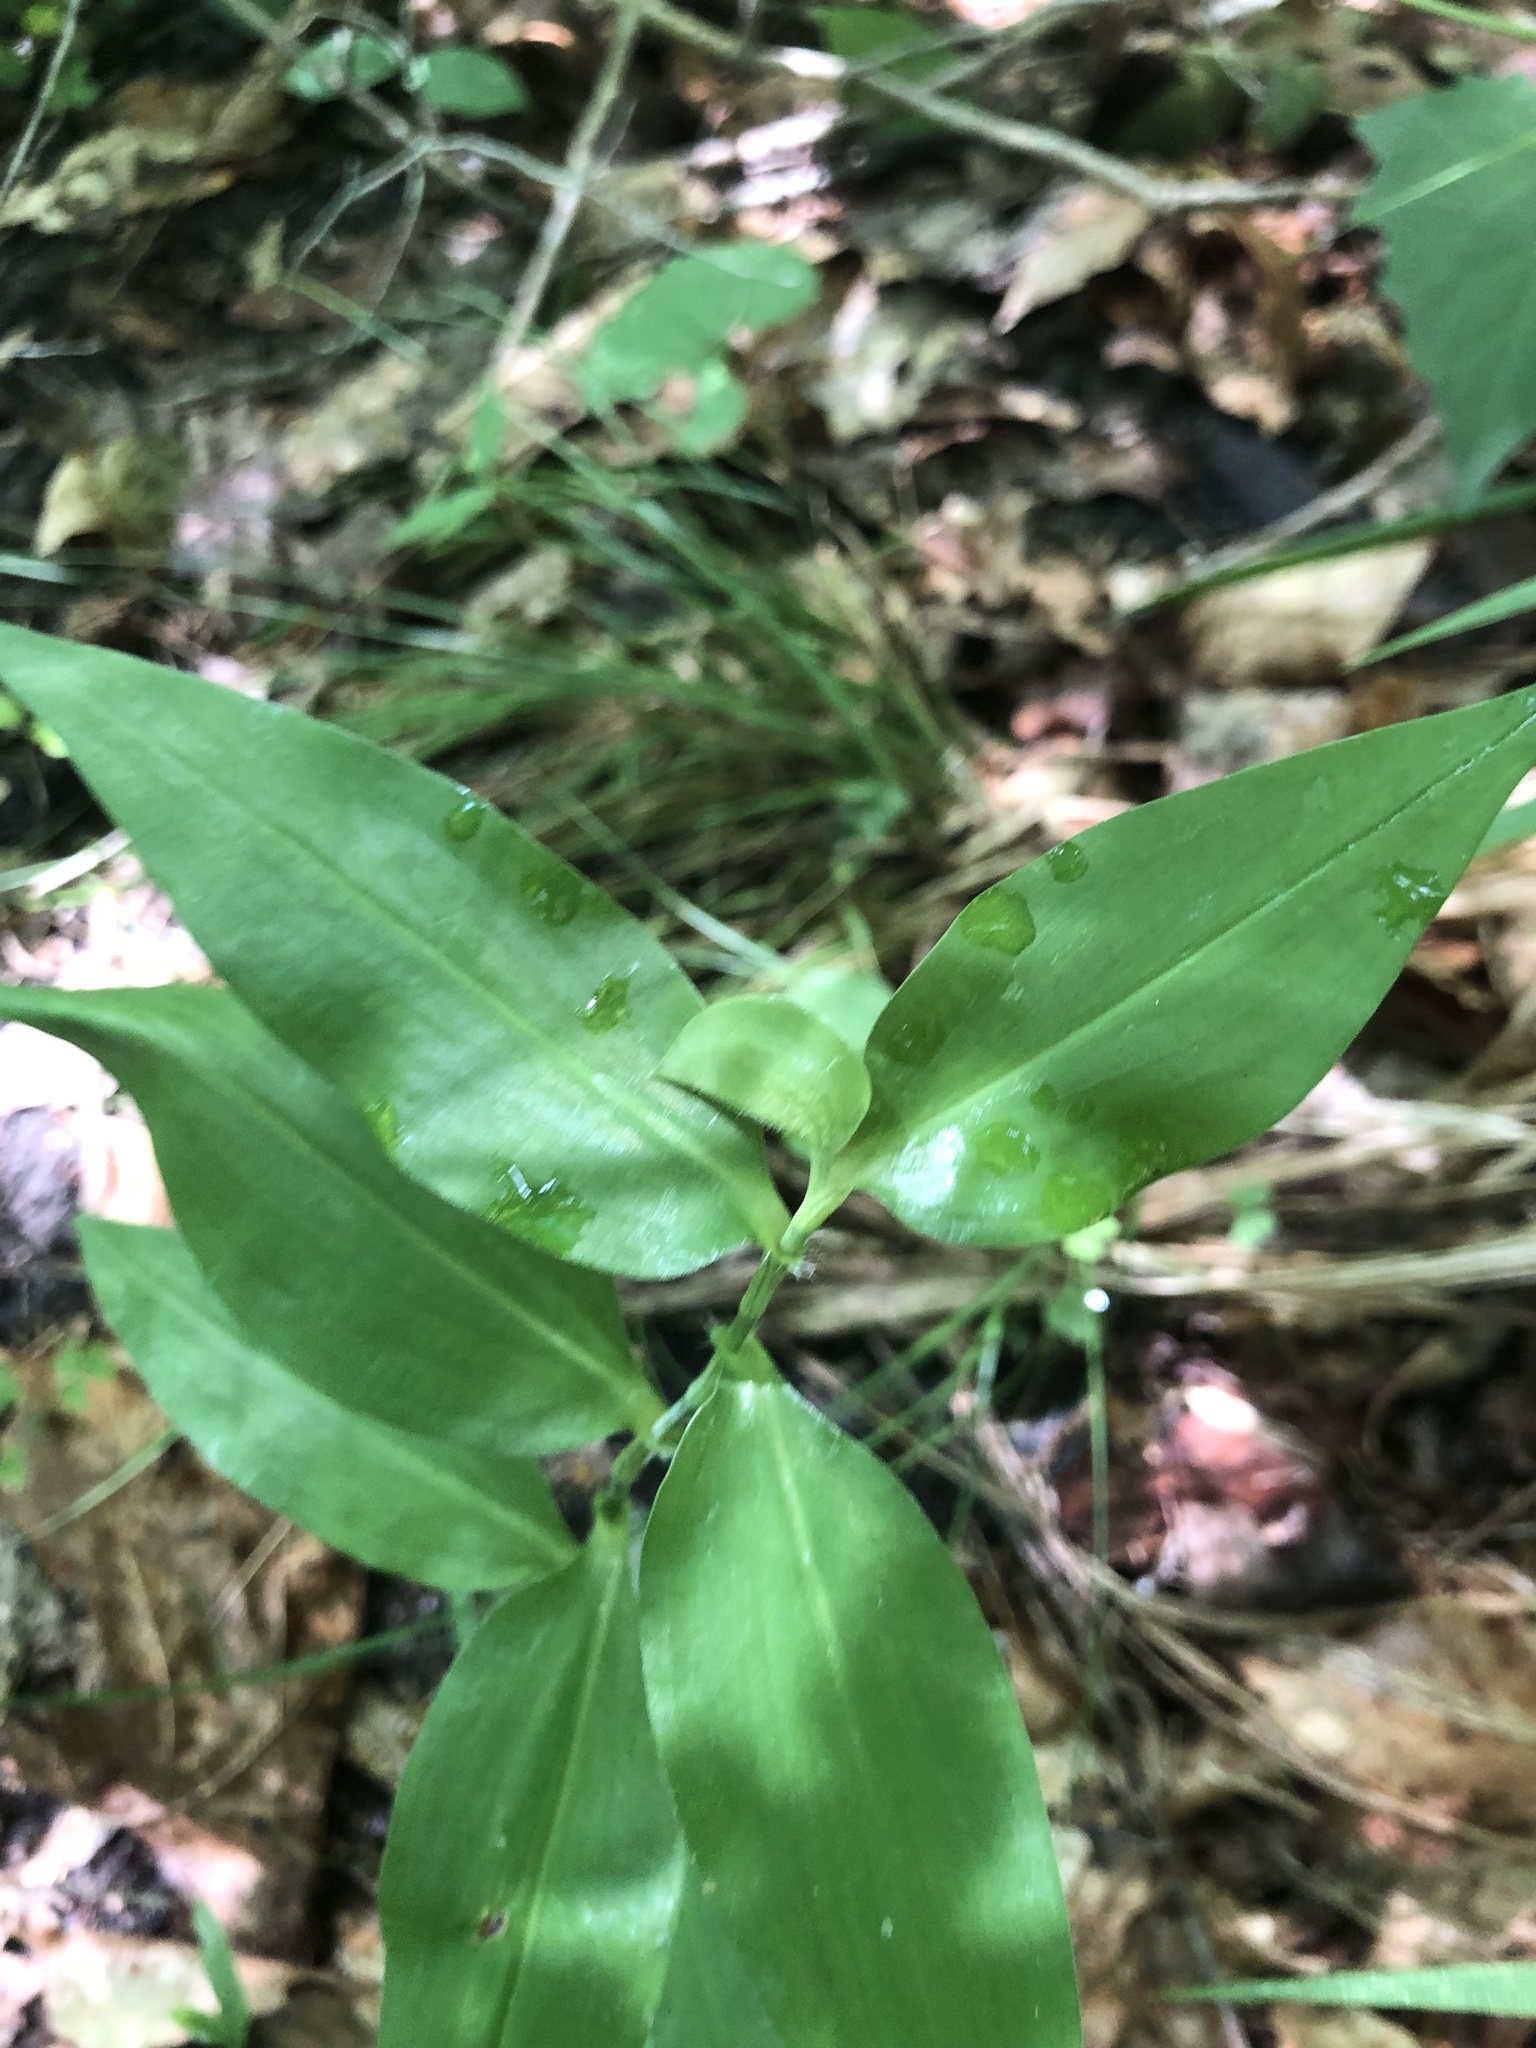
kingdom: Plantae
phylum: Tracheophyta
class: Liliopsida
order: Commelinales
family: Commelinaceae
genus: Commelina
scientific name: Commelina erecta
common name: Blousel blommetjie
